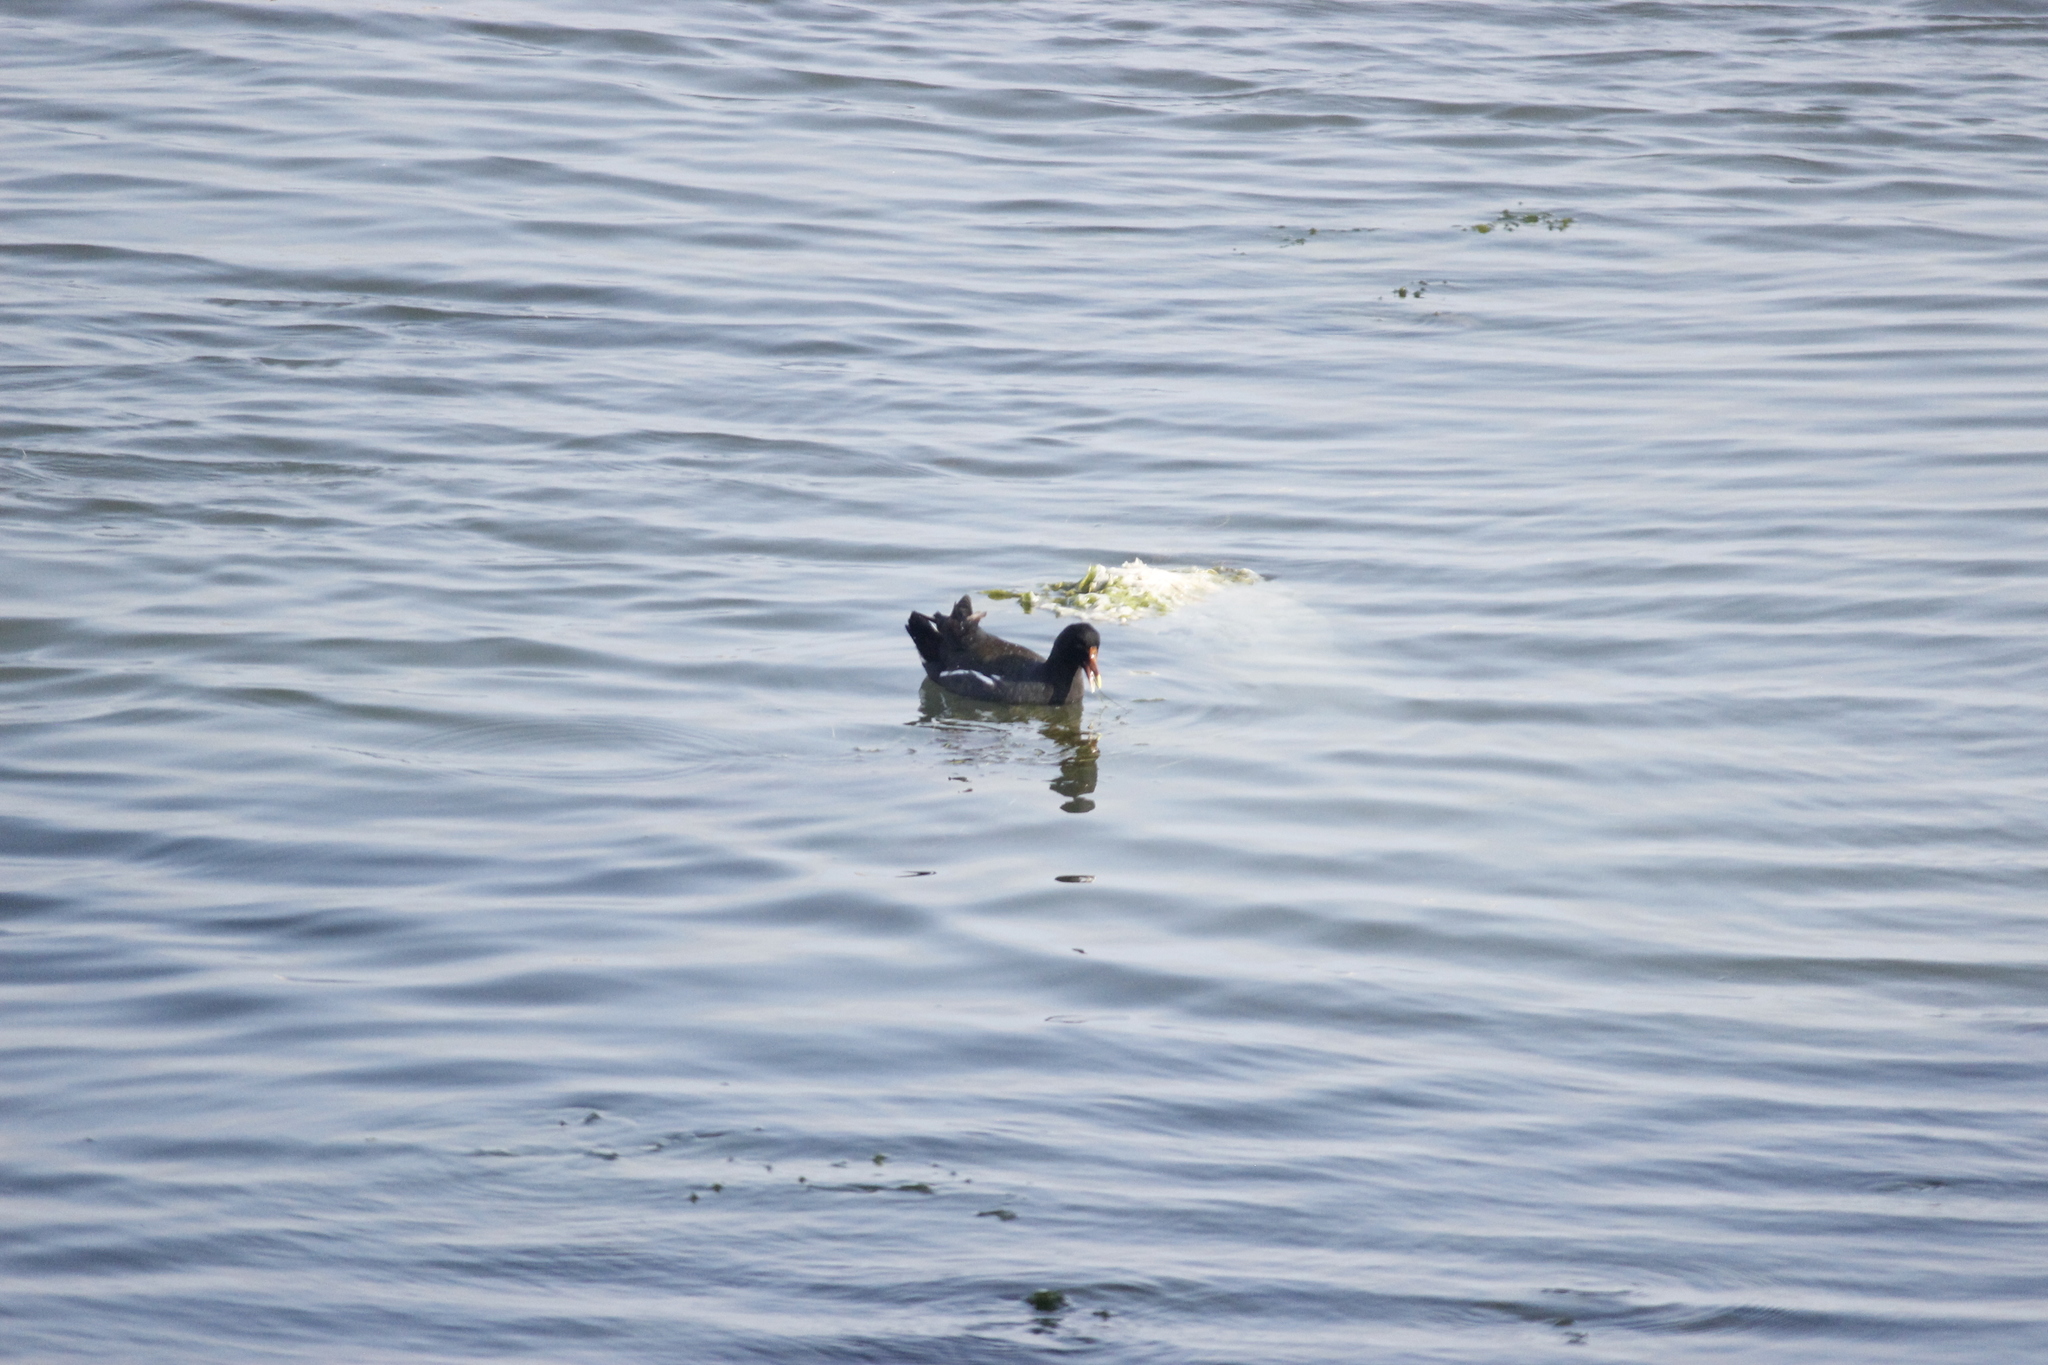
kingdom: Animalia
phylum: Chordata
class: Aves
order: Gruiformes
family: Rallidae
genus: Gallinula
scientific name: Gallinula chloropus
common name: Common moorhen
